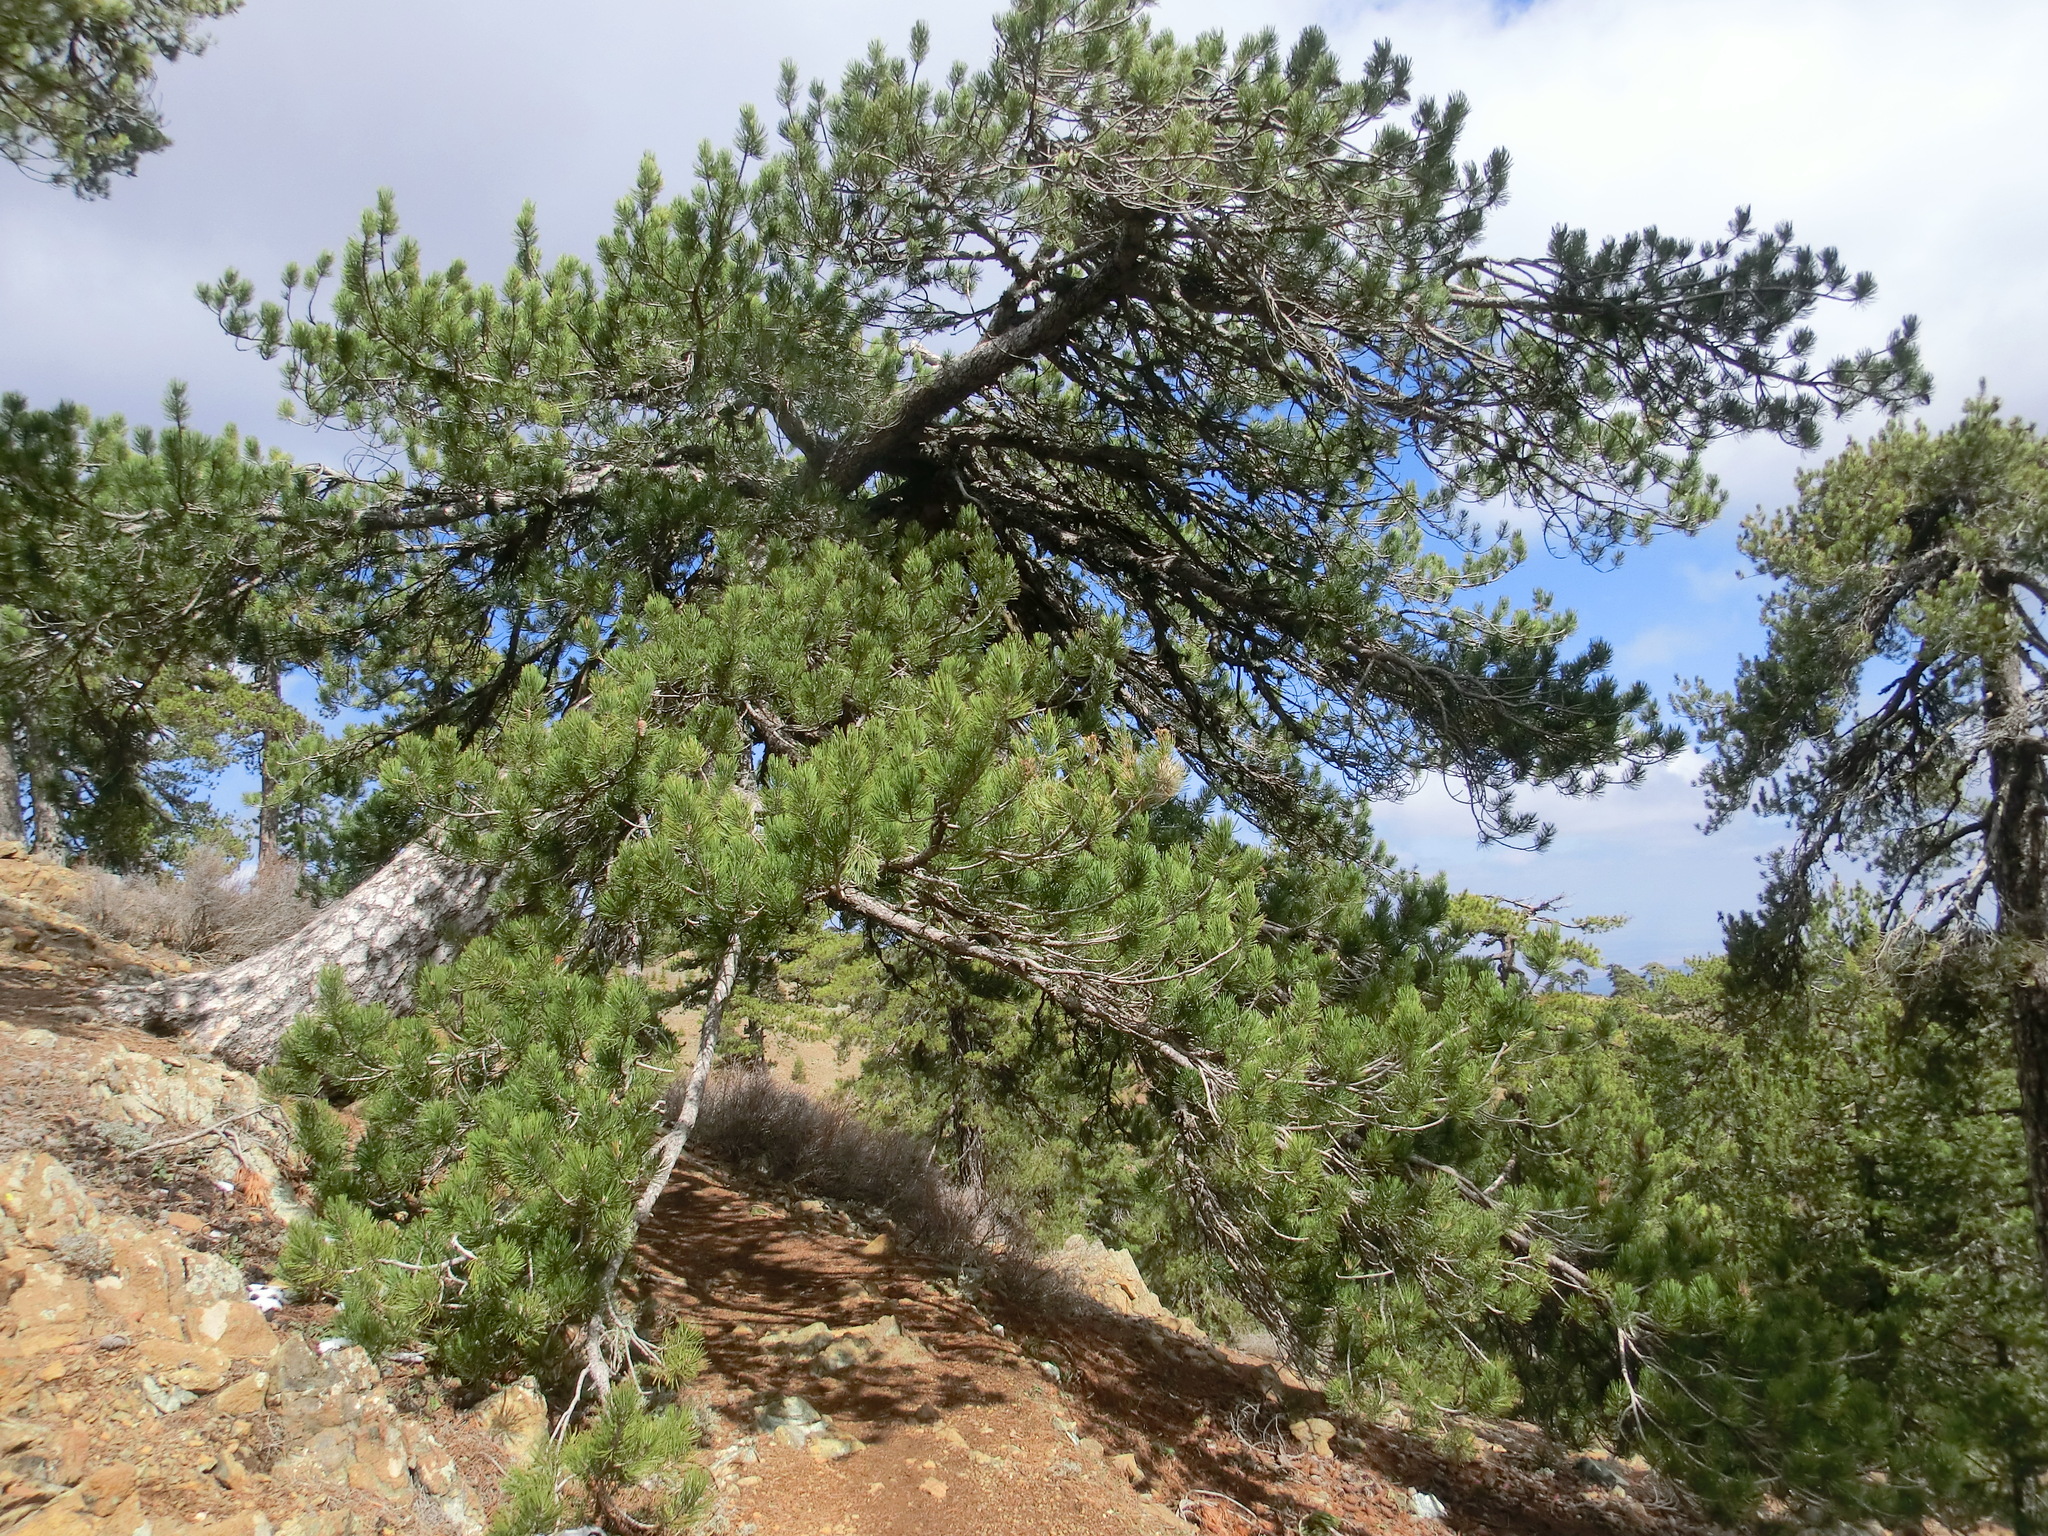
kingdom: Plantae
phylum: Tracheophyta
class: Pinopsida
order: Pinales
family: Pinaceae
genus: Pinus
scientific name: Pinus nigra
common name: Austrian pine
